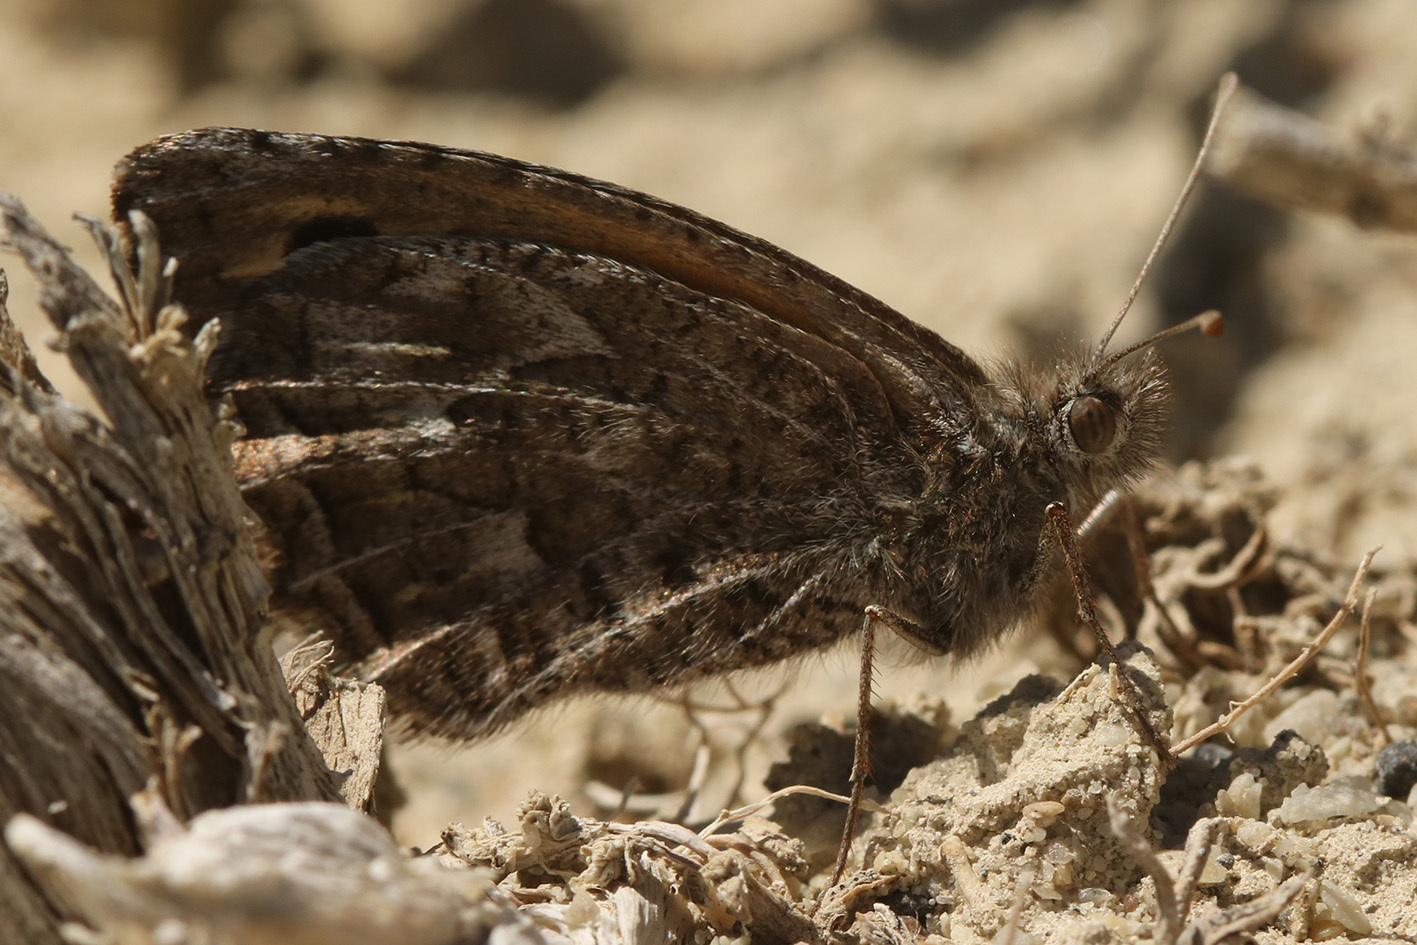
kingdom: Animalia
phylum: Arthropoda
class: Insecta
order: Lepidoptera
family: Nymphalidae
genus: Argyrophorus
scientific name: Argyrophorus
